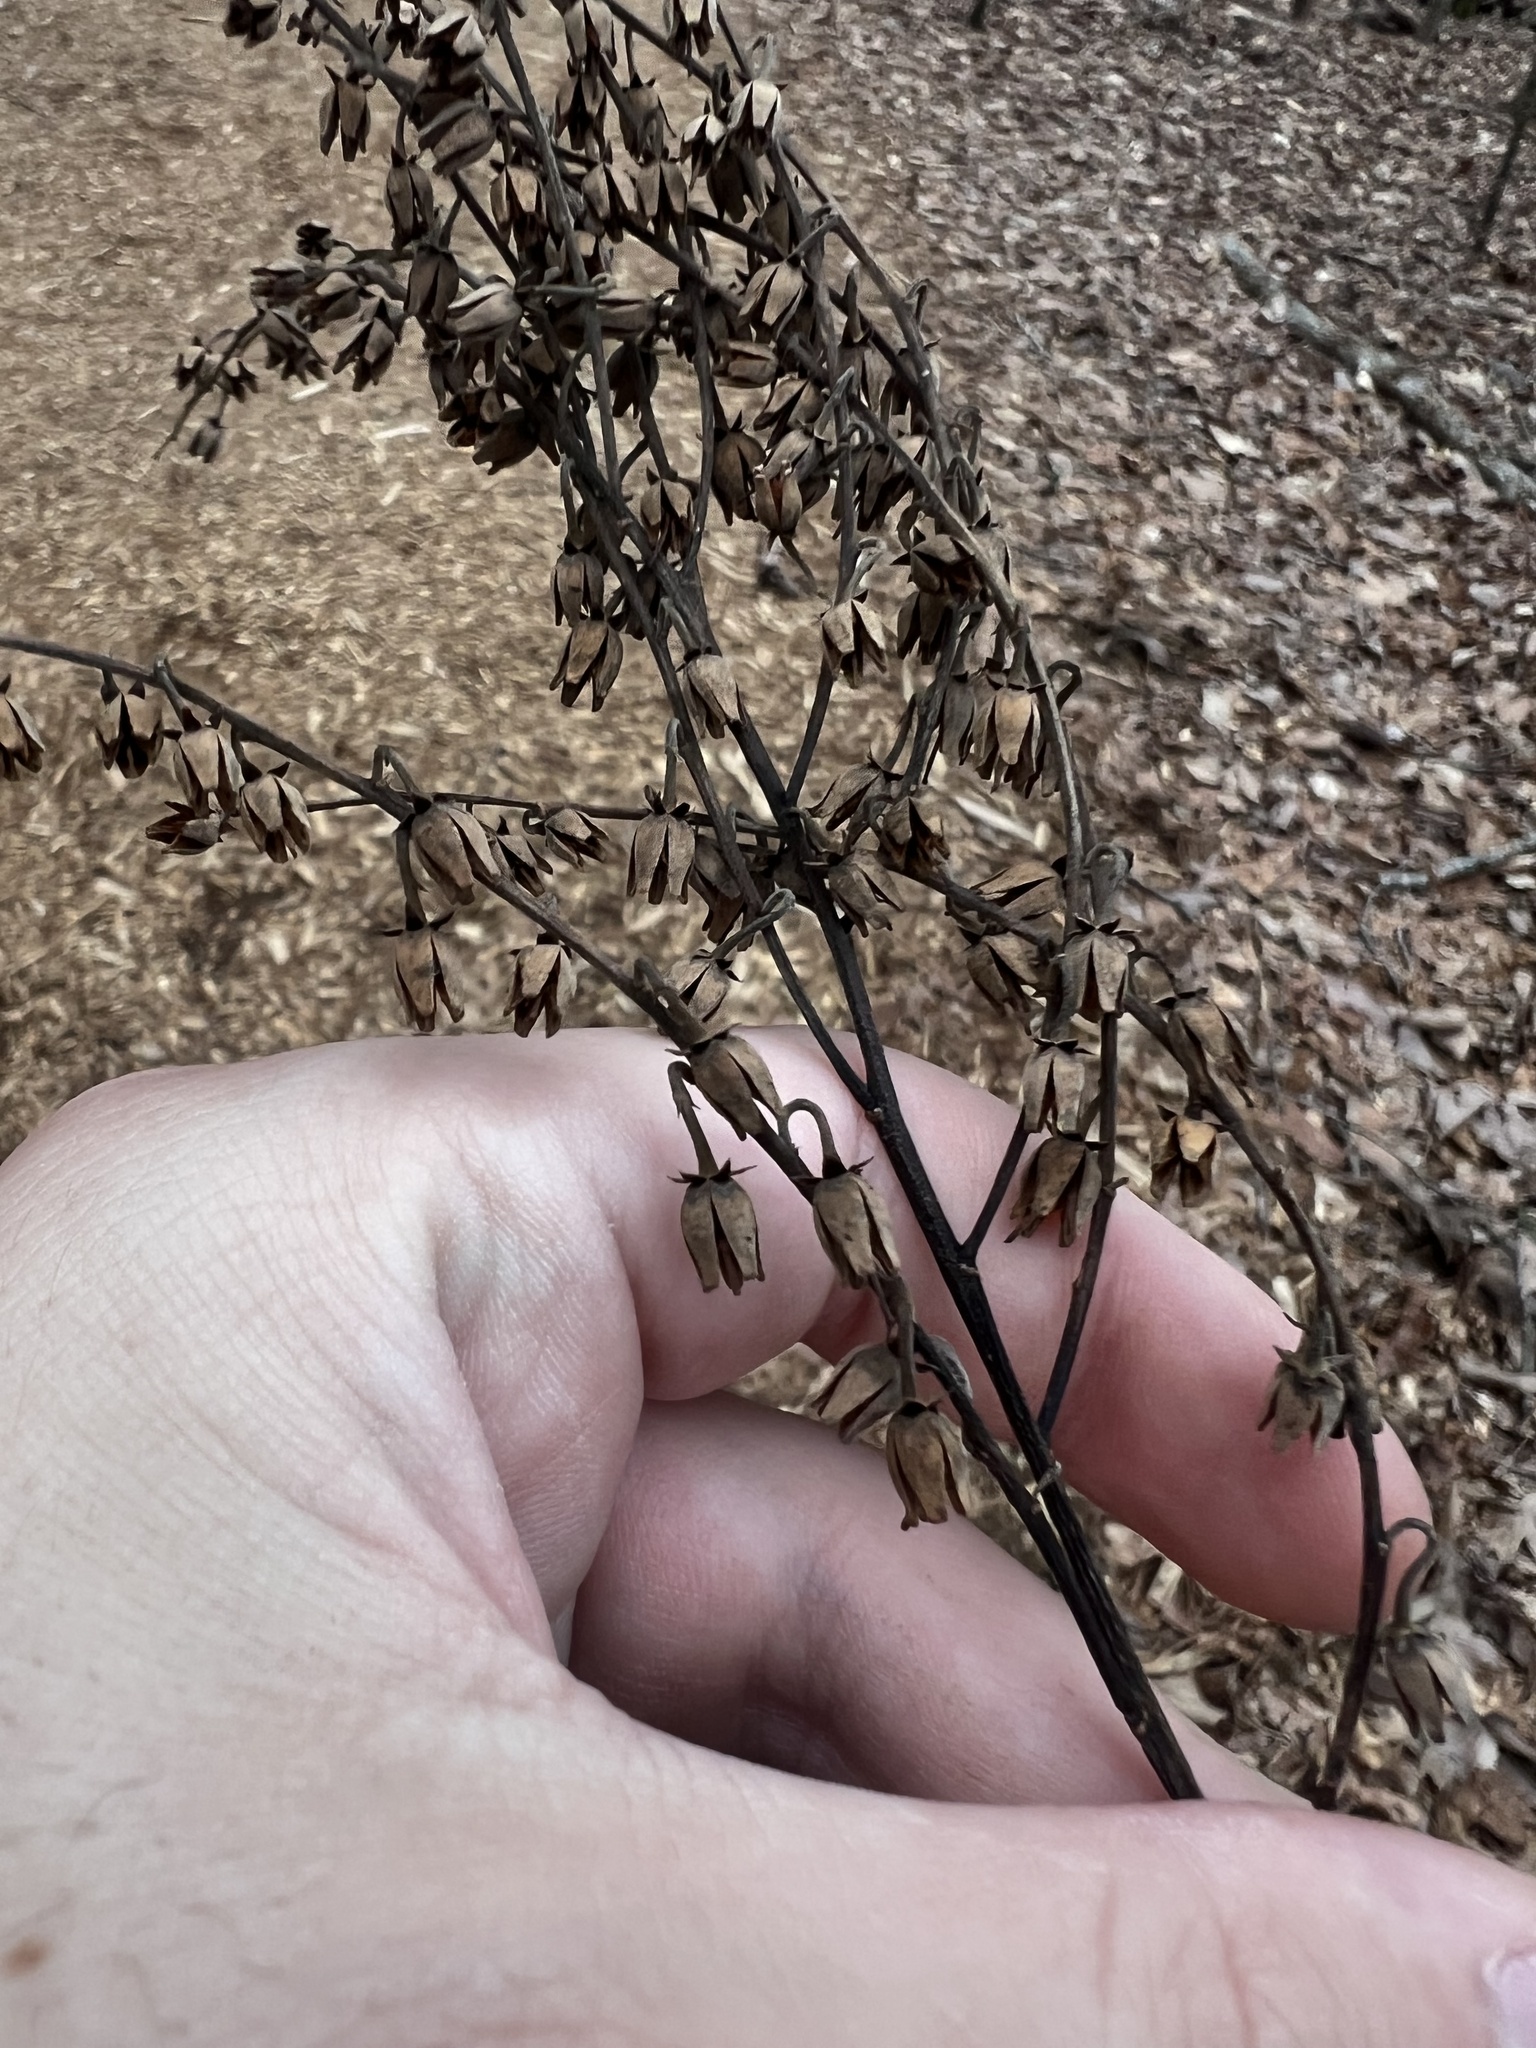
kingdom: Plantae
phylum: Tracheophyta
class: Magnoliopsida
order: Ericales
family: Ericaceae
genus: Oxydendrum
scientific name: Oxydendrum arboreum
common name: Sourwood
